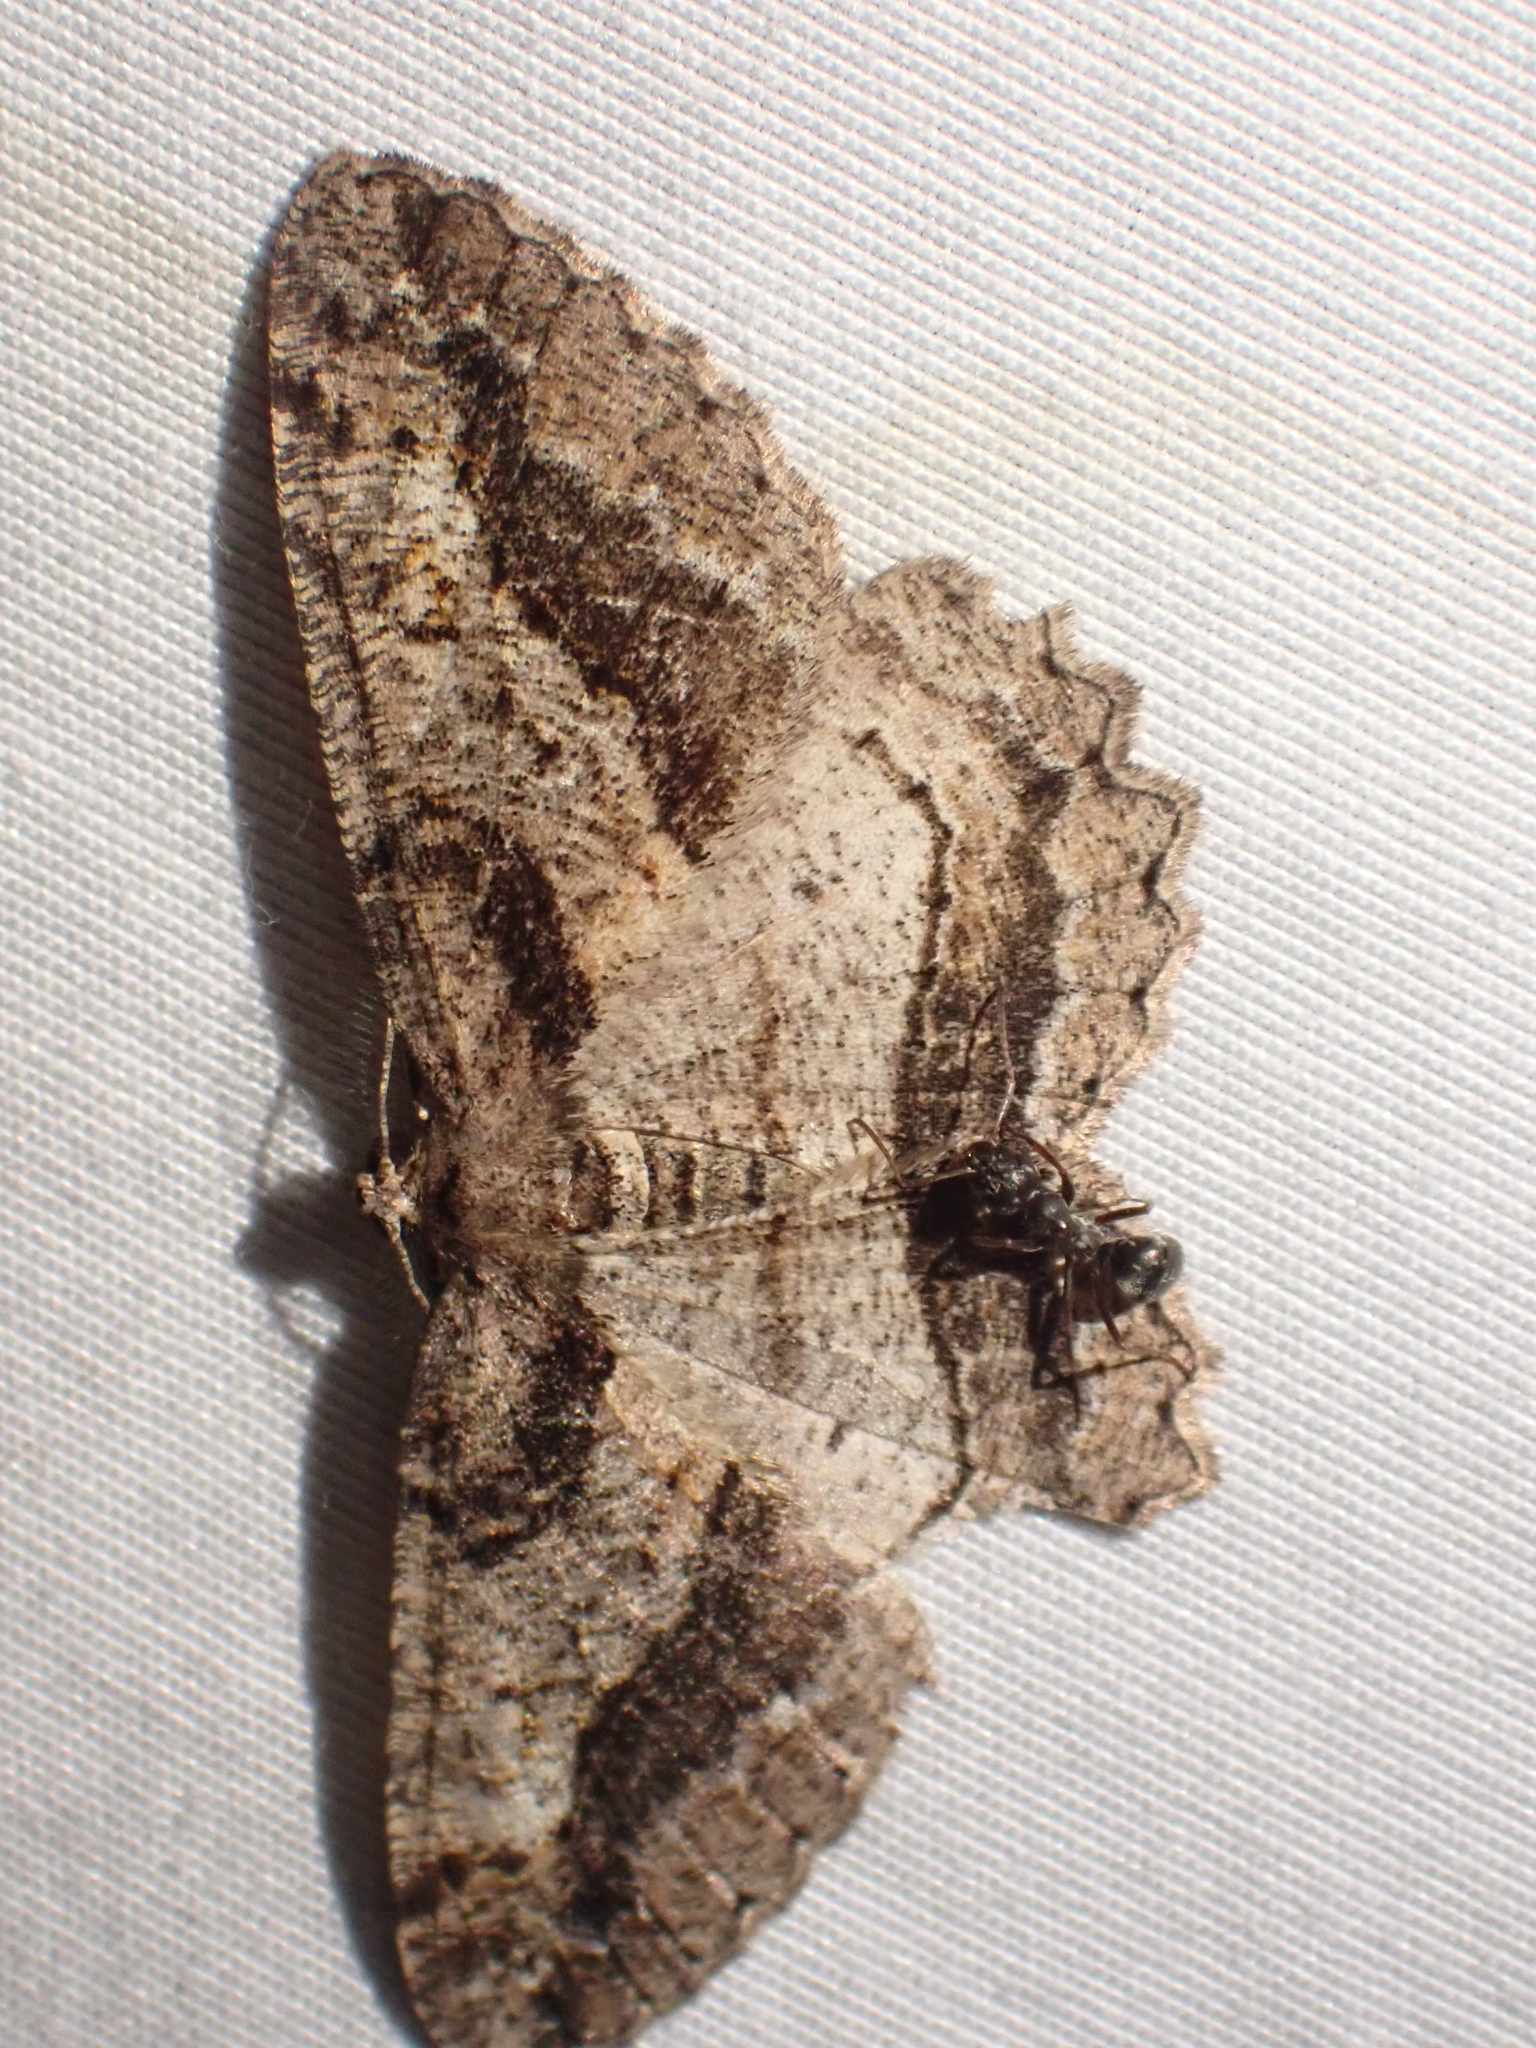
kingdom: Animalia
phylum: Arthropoda
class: Insecta
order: Lepidoptera
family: Geometridae
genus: Neoalcis
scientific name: Neoalcis californiaria
